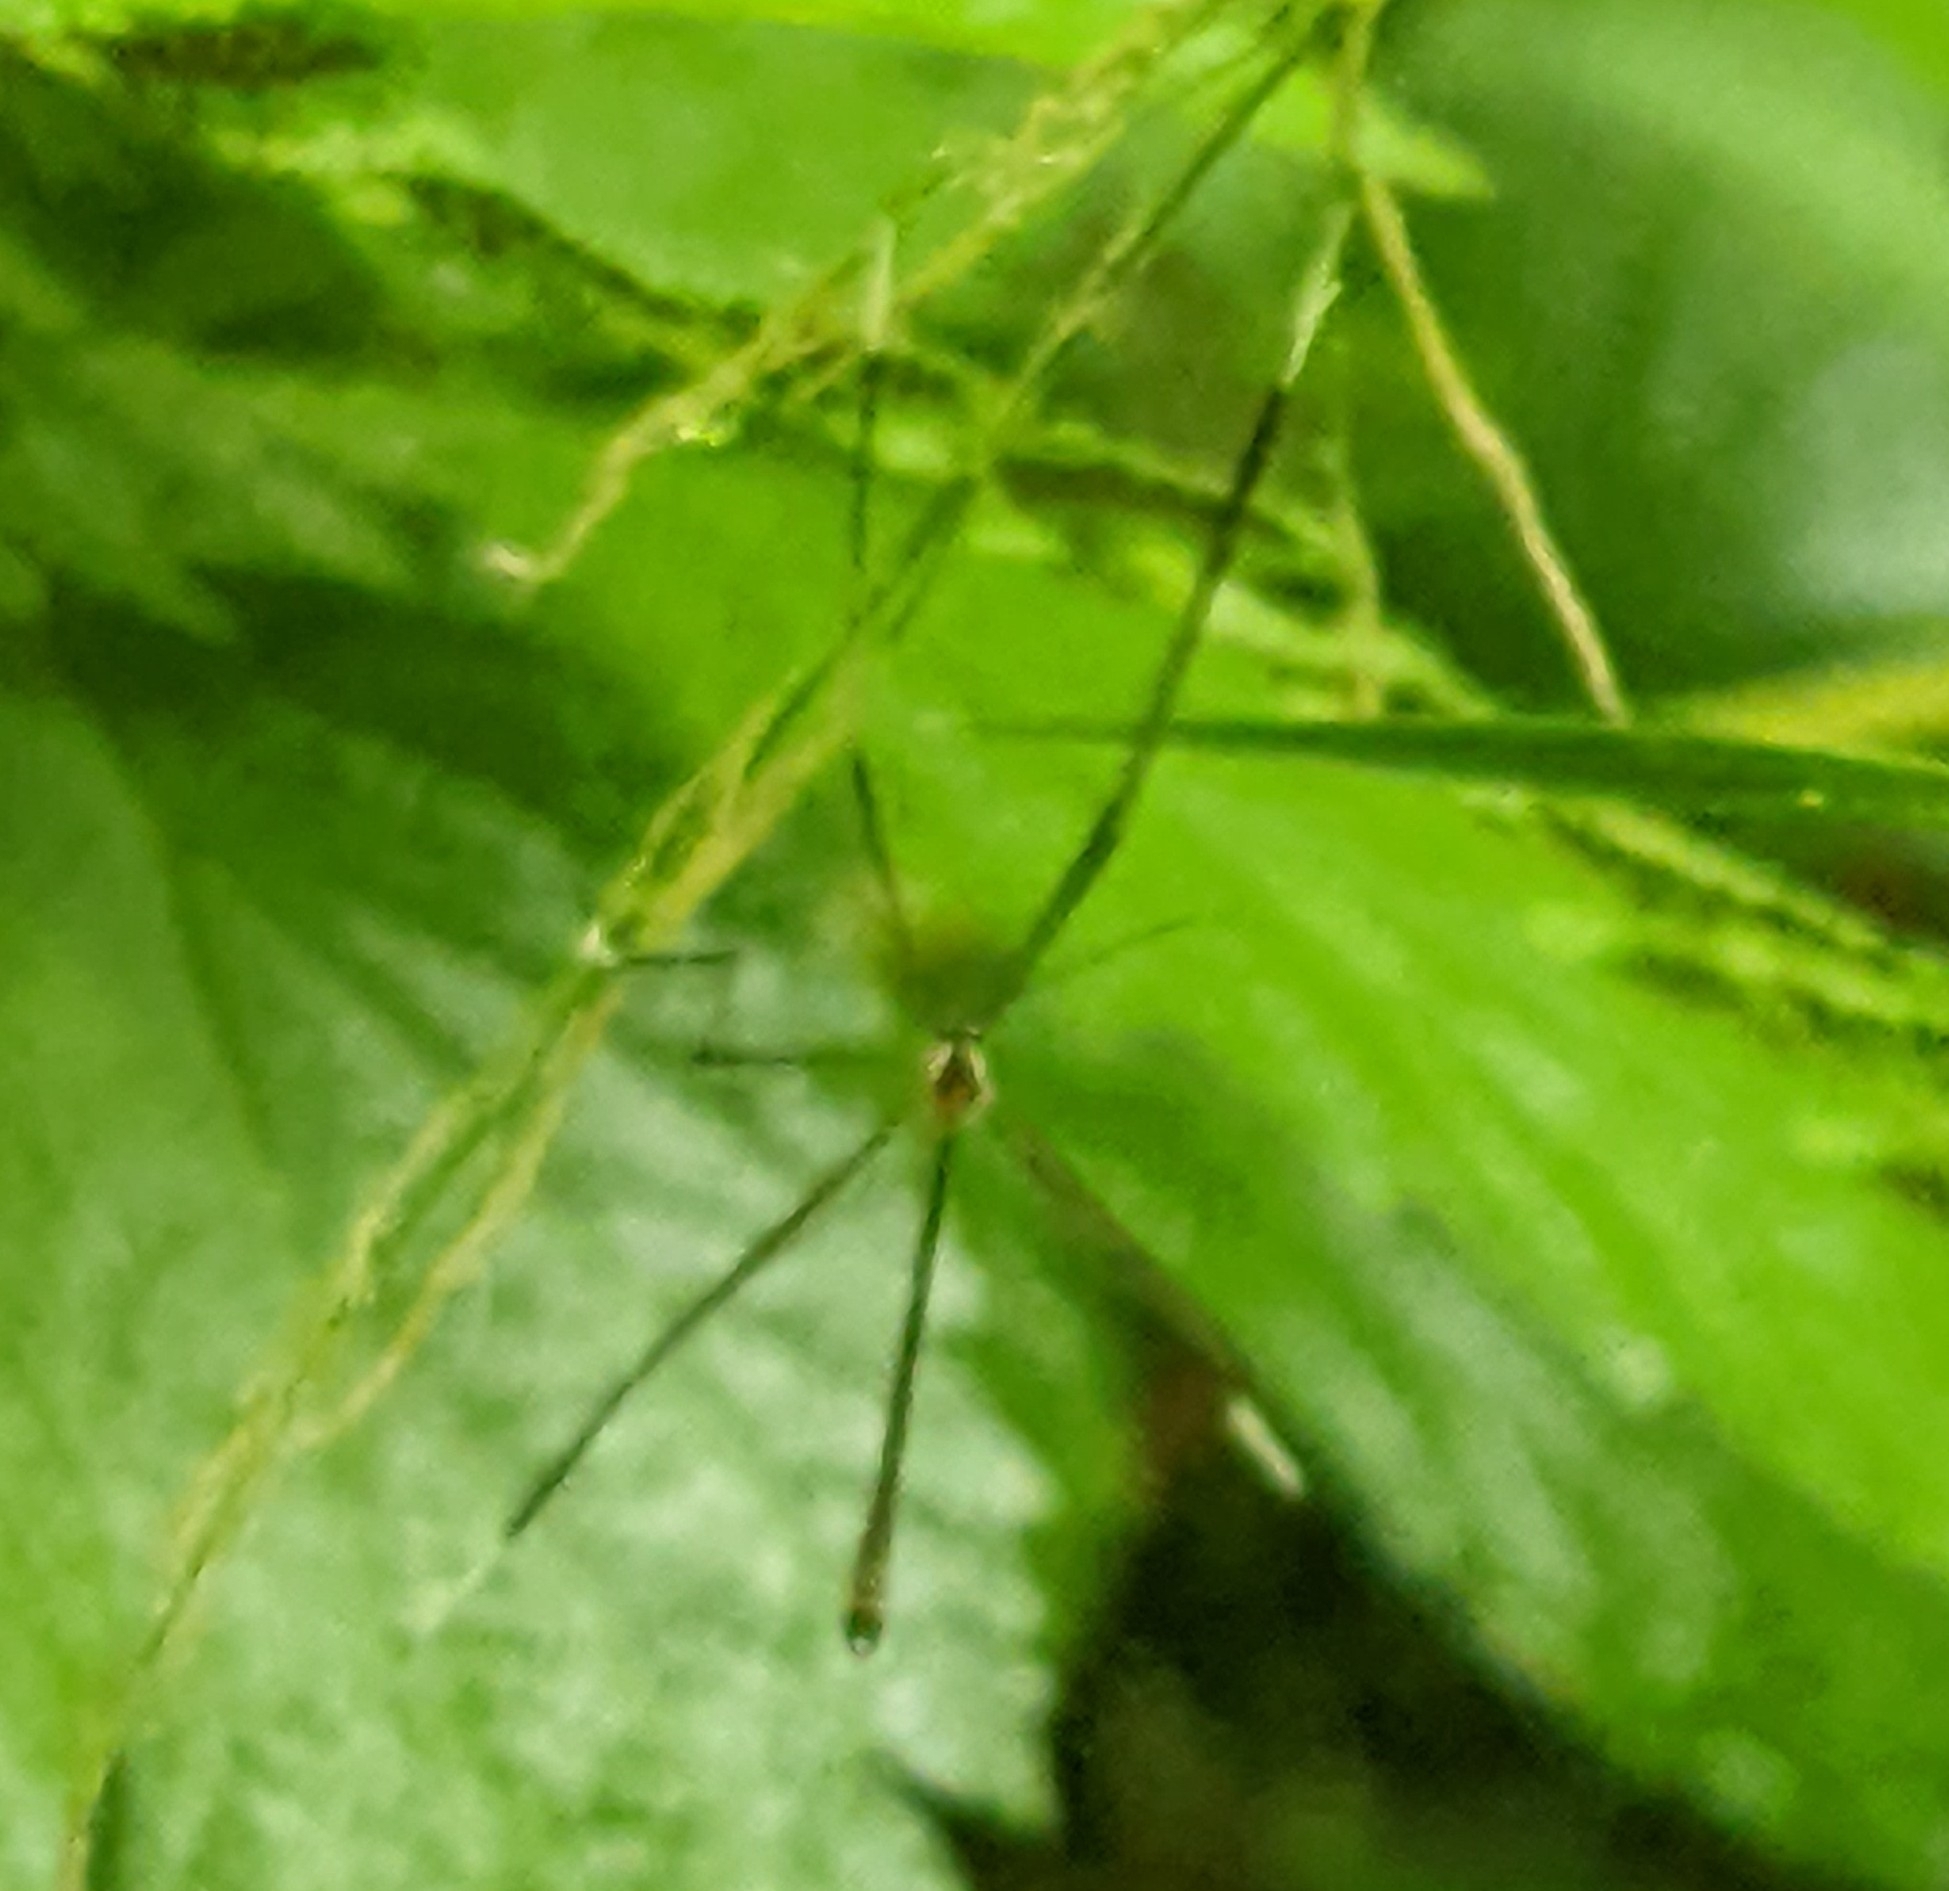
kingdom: Animalia
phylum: Arthropoda
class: Insecta
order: Diptera
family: Ptychopteridae
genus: Bittacomorphella
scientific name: Bittacomorphella fenderiana
